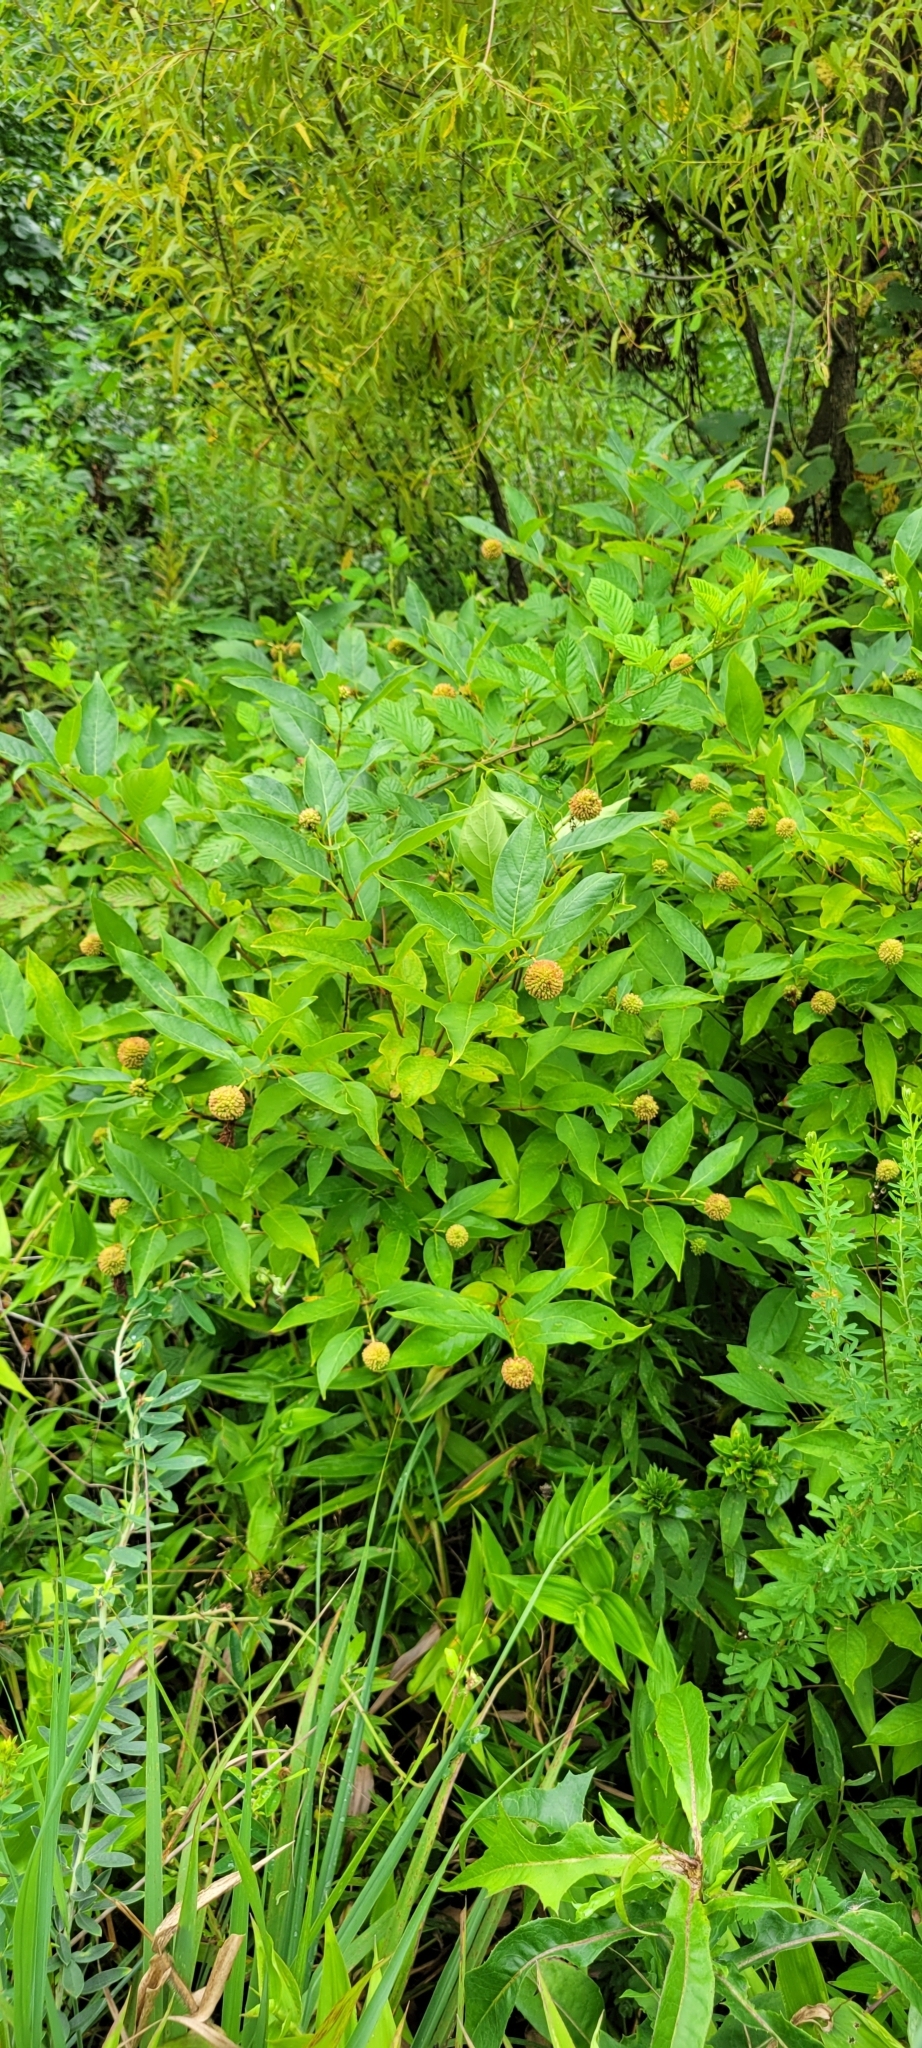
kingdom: Plantae
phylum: Tracheophyta
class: Magnoliopsida
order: Gentianales
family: Rubiaceae
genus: Cephalanthus
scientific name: Cephalanthus occidentalis
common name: Button-willow
